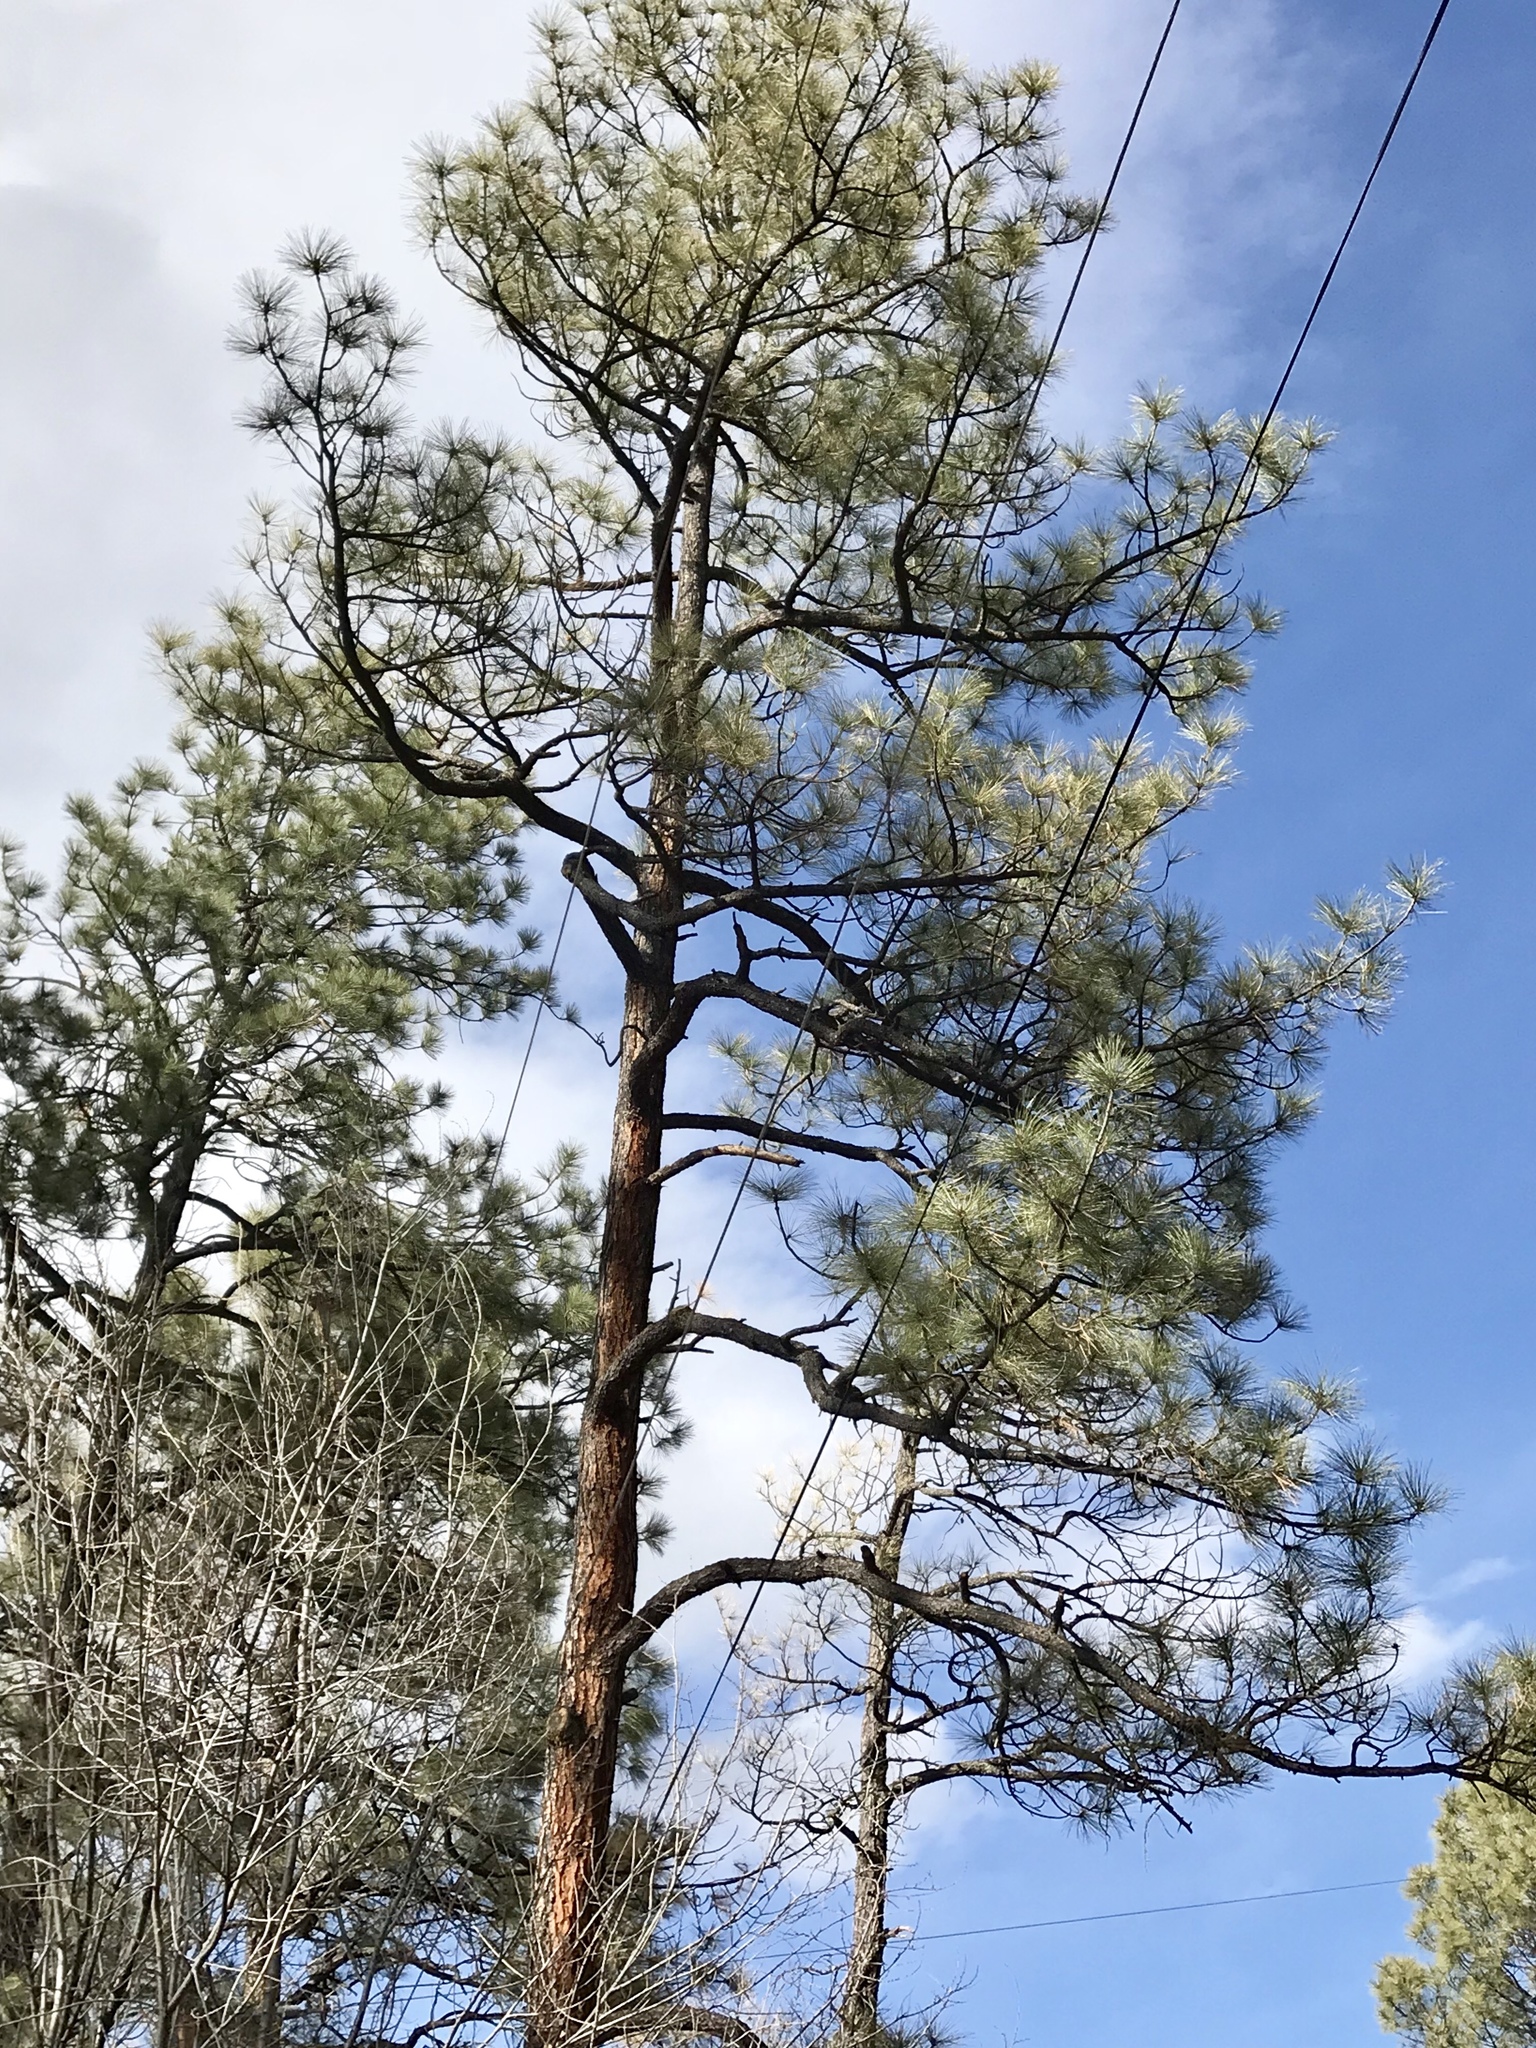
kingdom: Plantae
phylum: Tracheophyta
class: Pinopsida
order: Pinales
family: Pinaceae
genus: Pinus
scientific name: Pinus ponderosa
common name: Western yellow-pine
